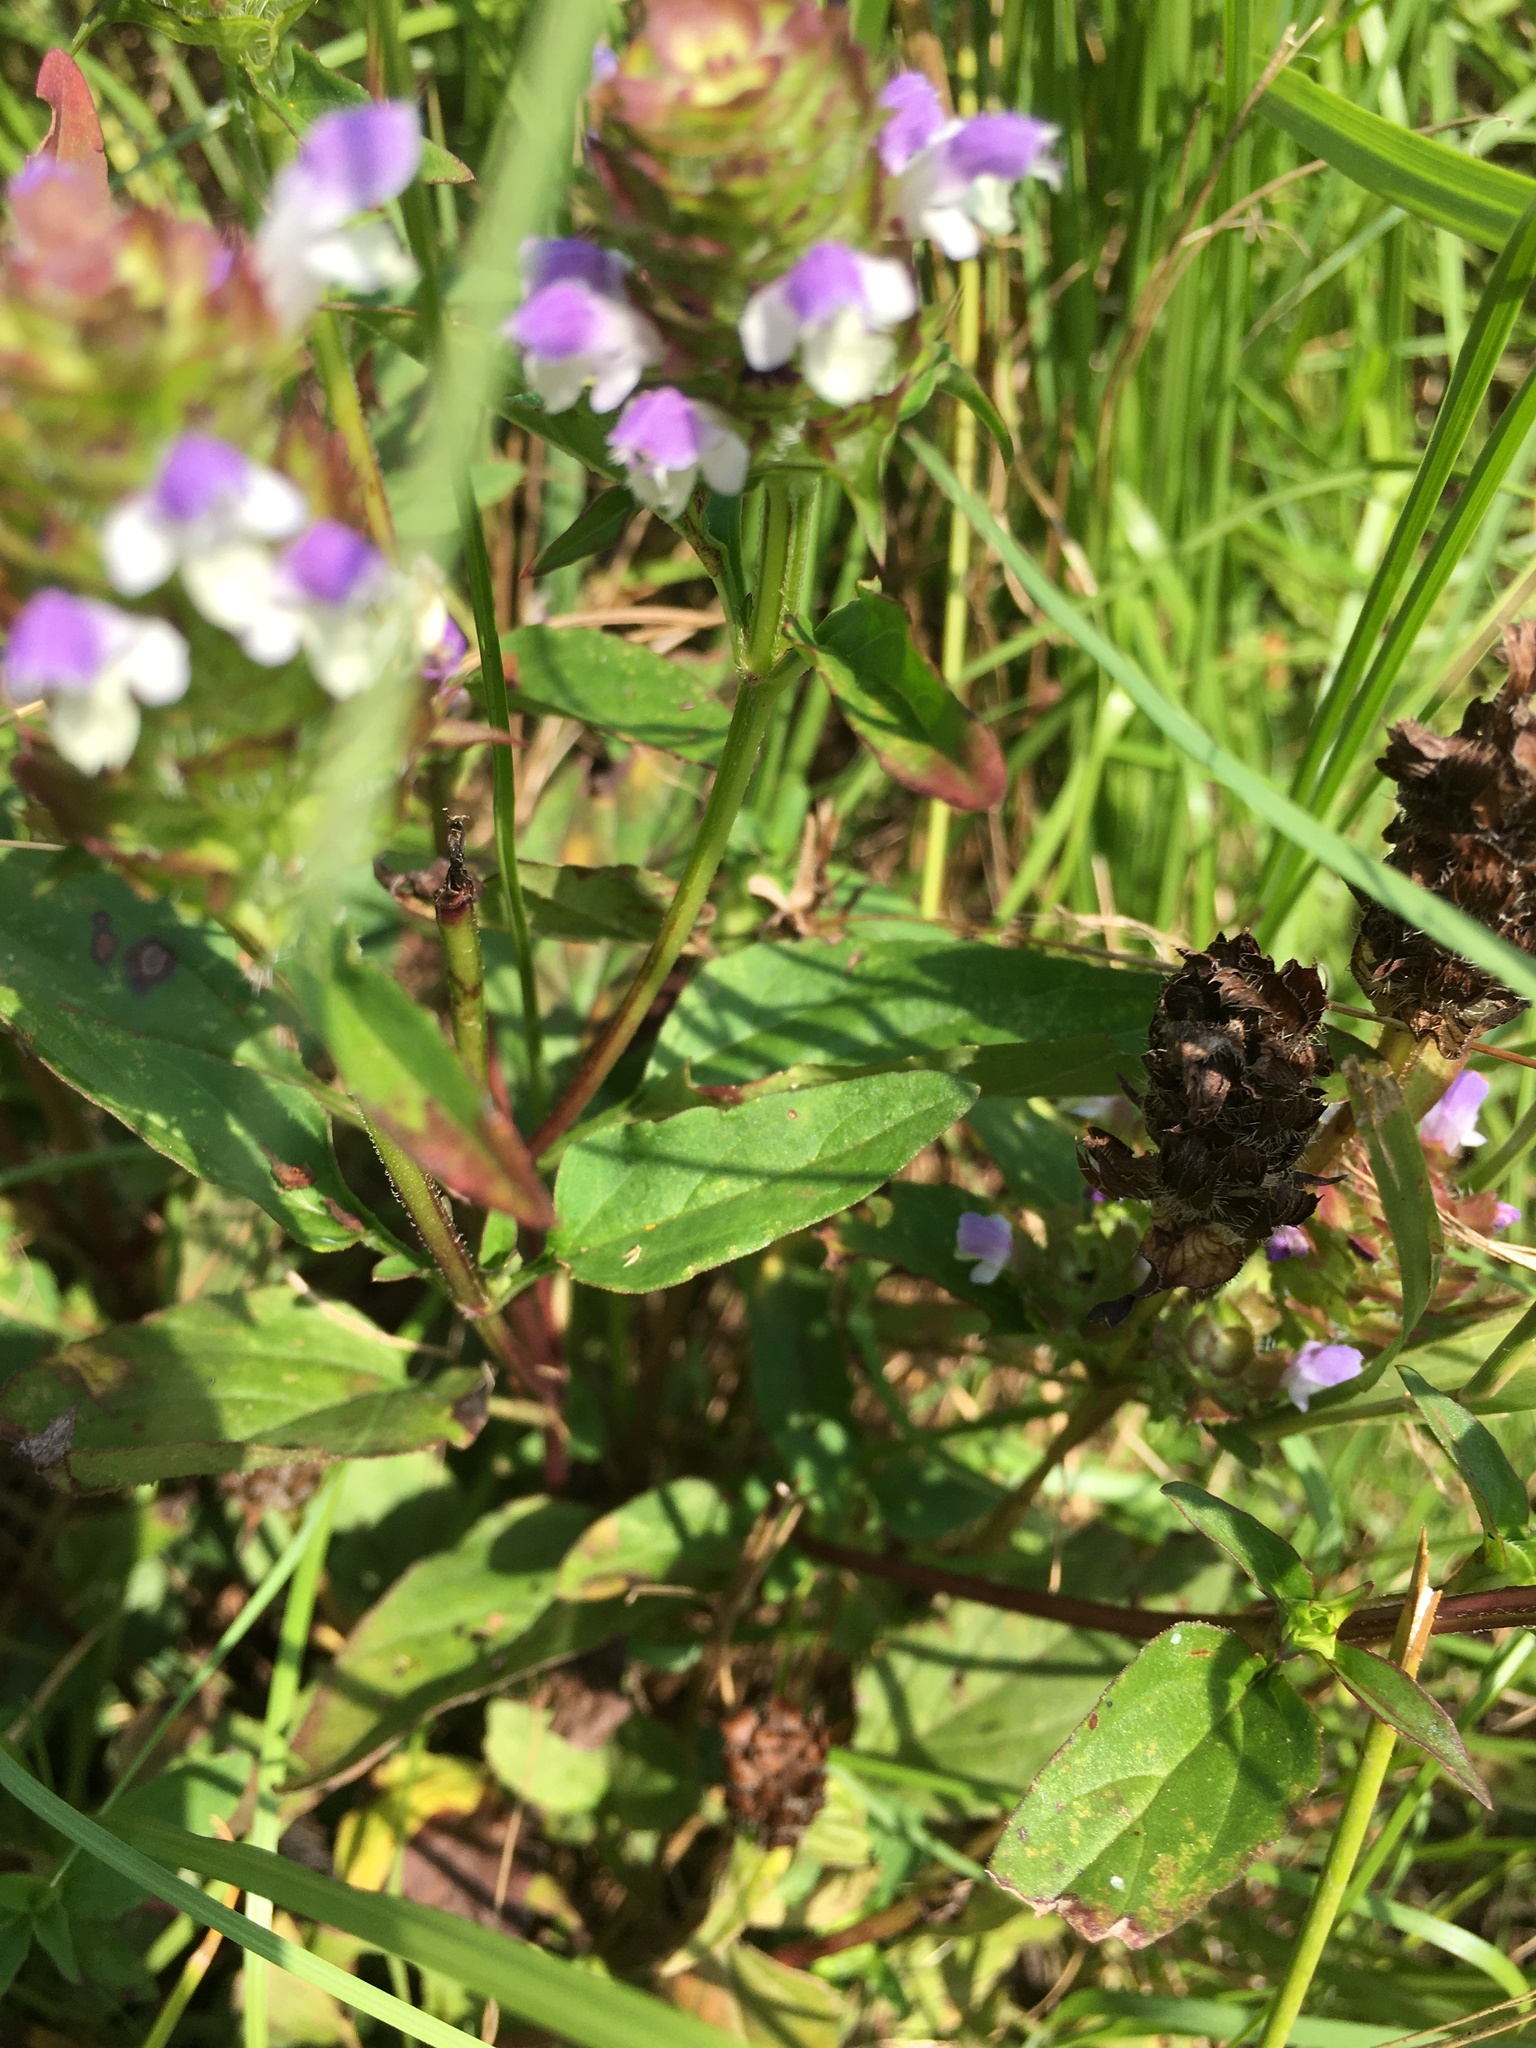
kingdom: Plantae
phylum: Tracheophyta
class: Magnoliopsida
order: Lamiales
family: Lamiaceae
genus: Prunella
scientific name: Prunella vulgaris
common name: Heal-all
